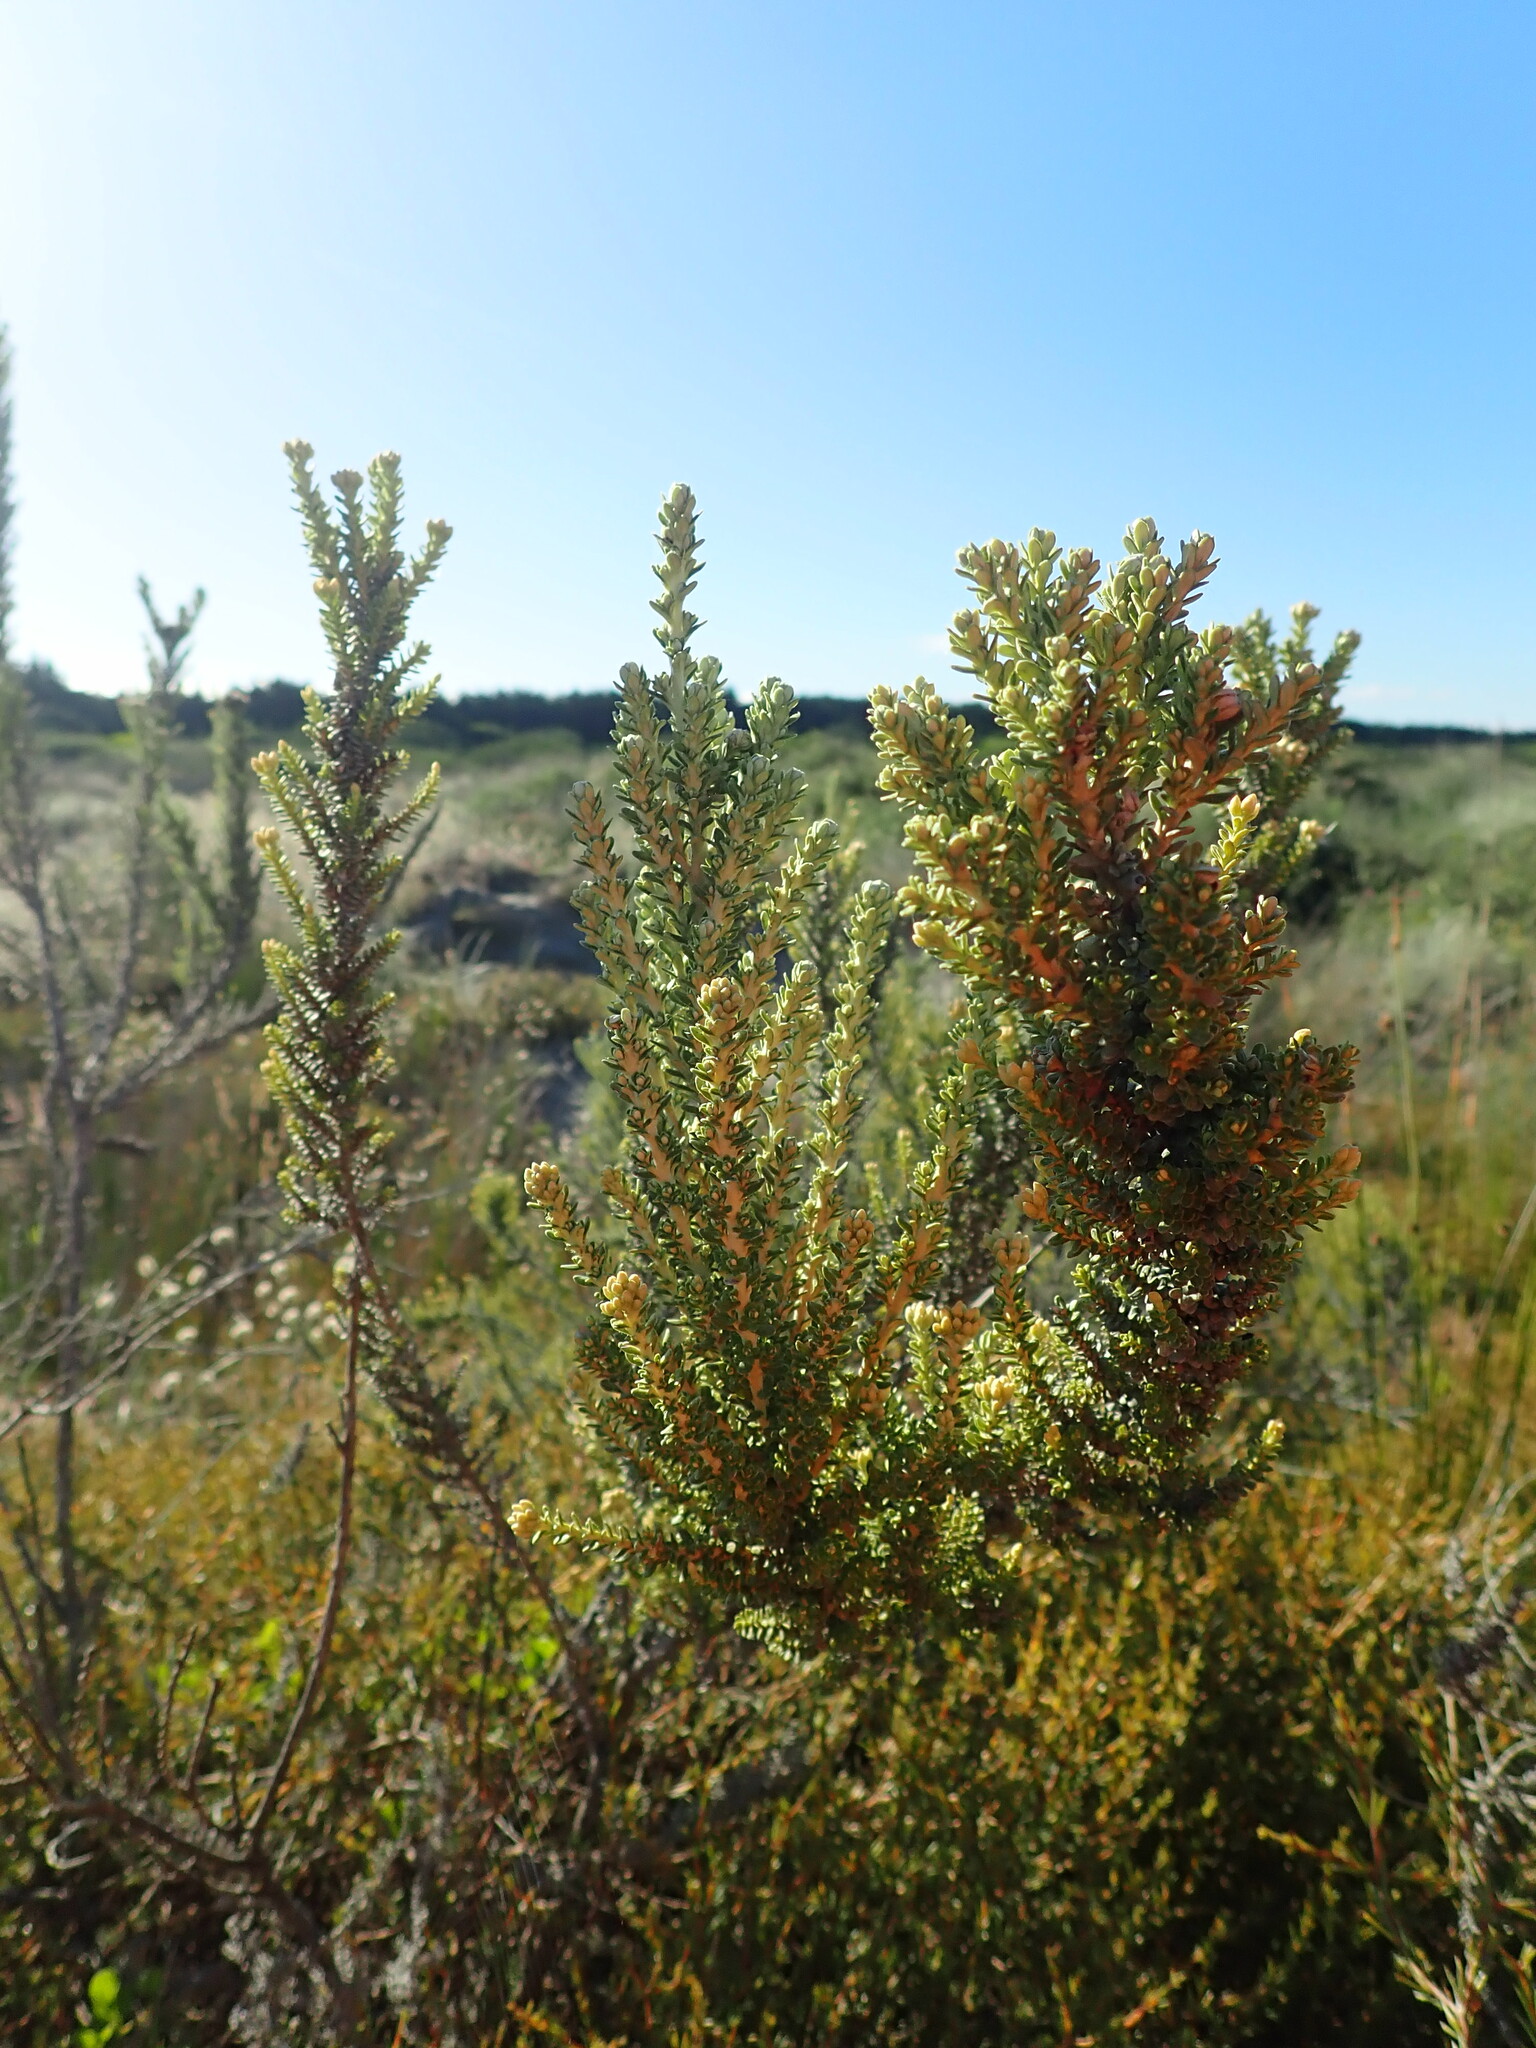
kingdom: Plantae
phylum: Tracheophyta
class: Magnoliopsida
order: Asterales
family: Asteraceae
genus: Ozothamnus
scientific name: Ozothamnus leptophyllus
